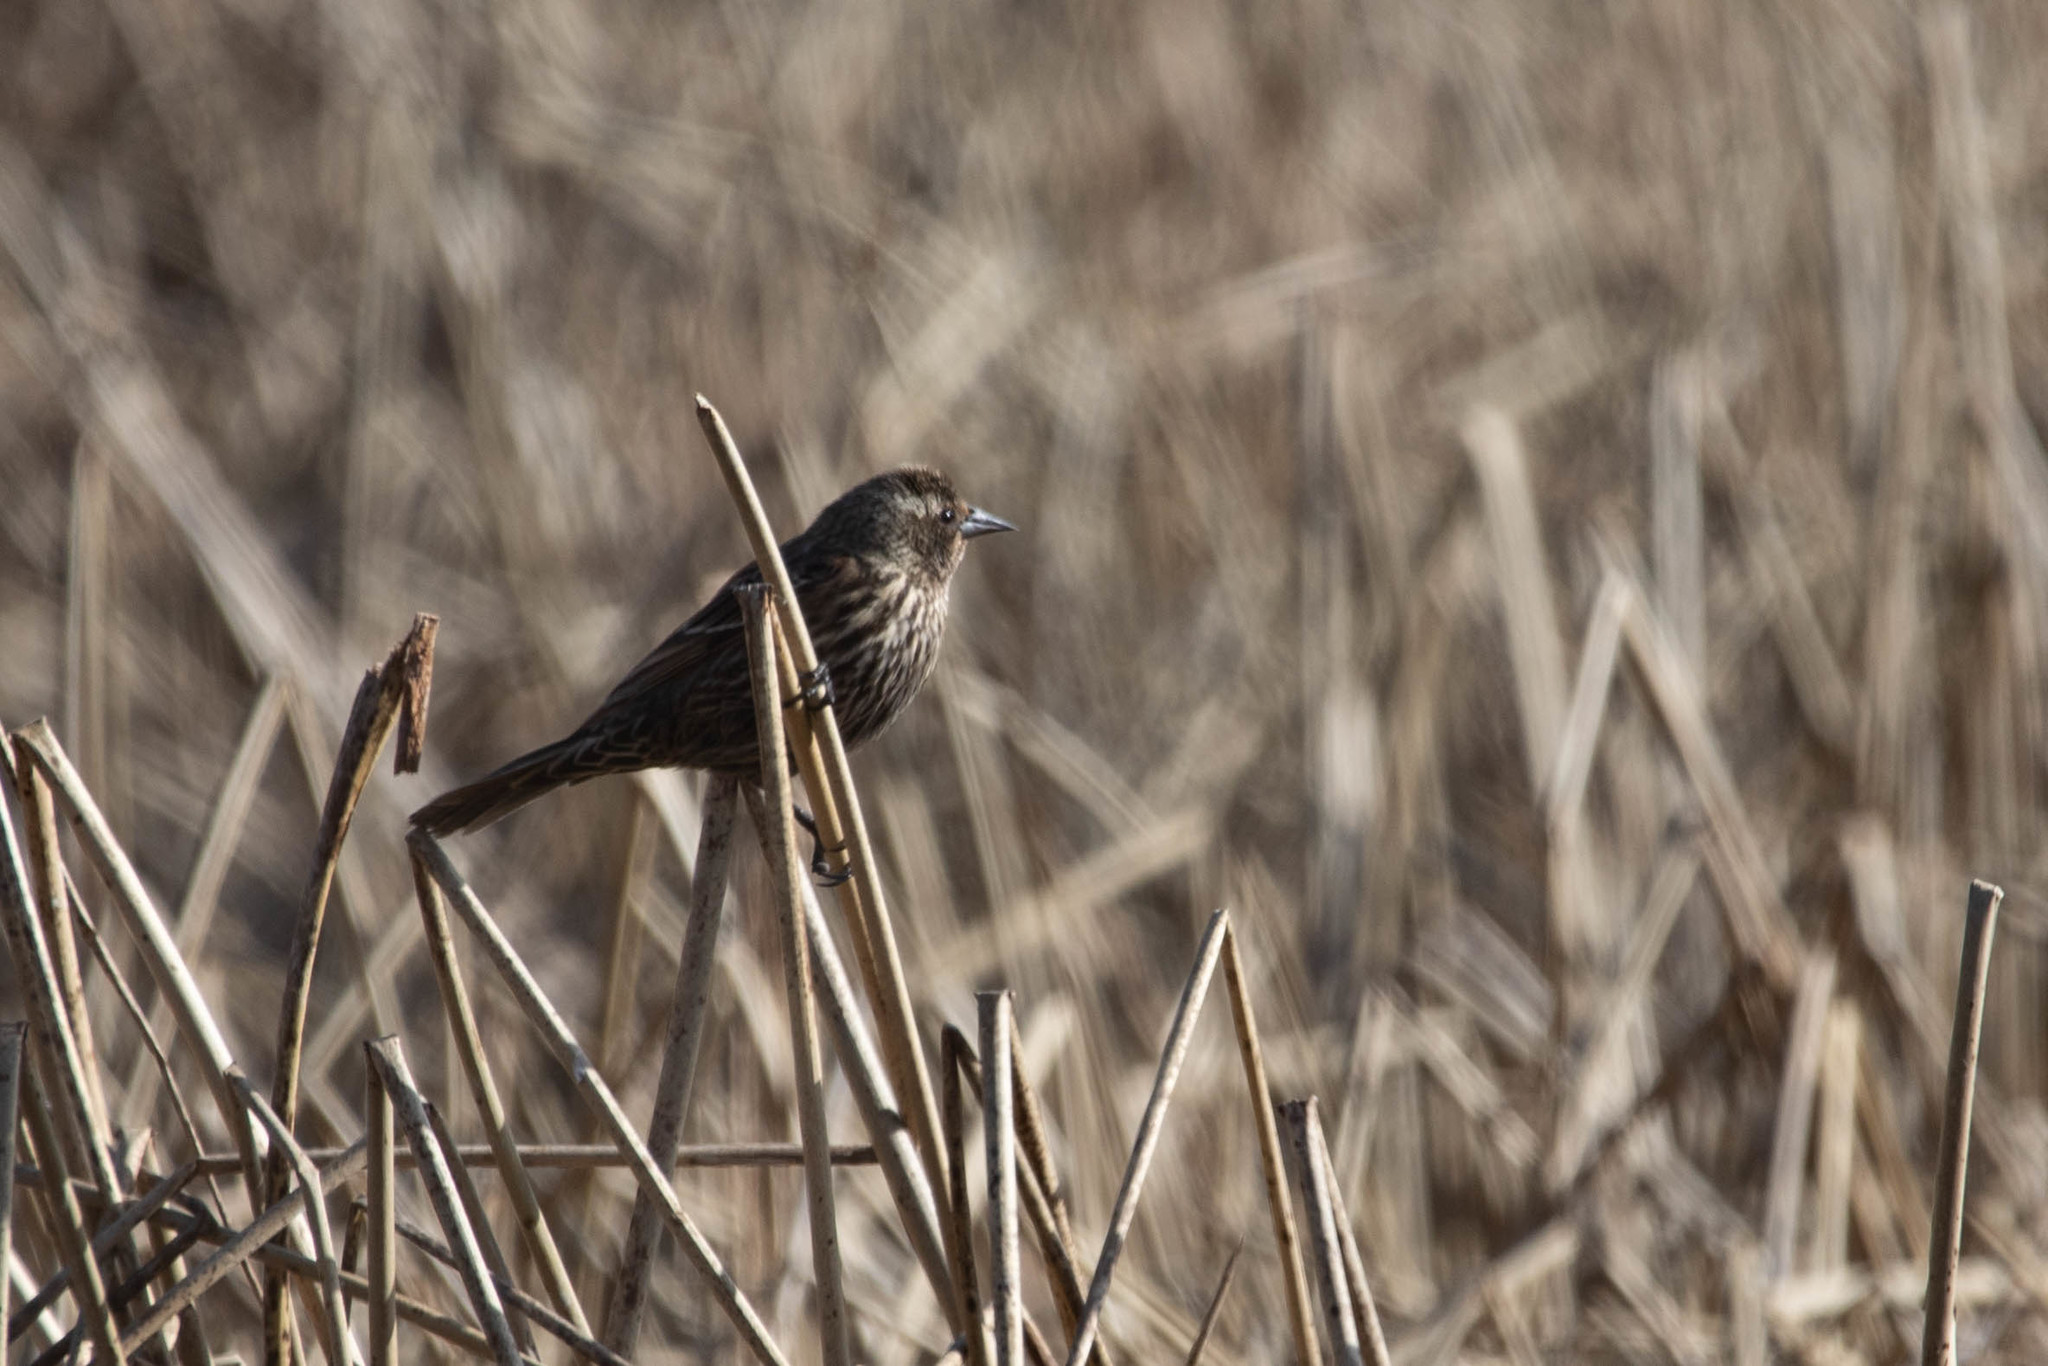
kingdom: Animalia
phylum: Chordata
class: Aves
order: Passeriformes
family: Icteridae
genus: Agelaius
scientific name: Agelaius phoeniceus
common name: Red-winged blackbird
